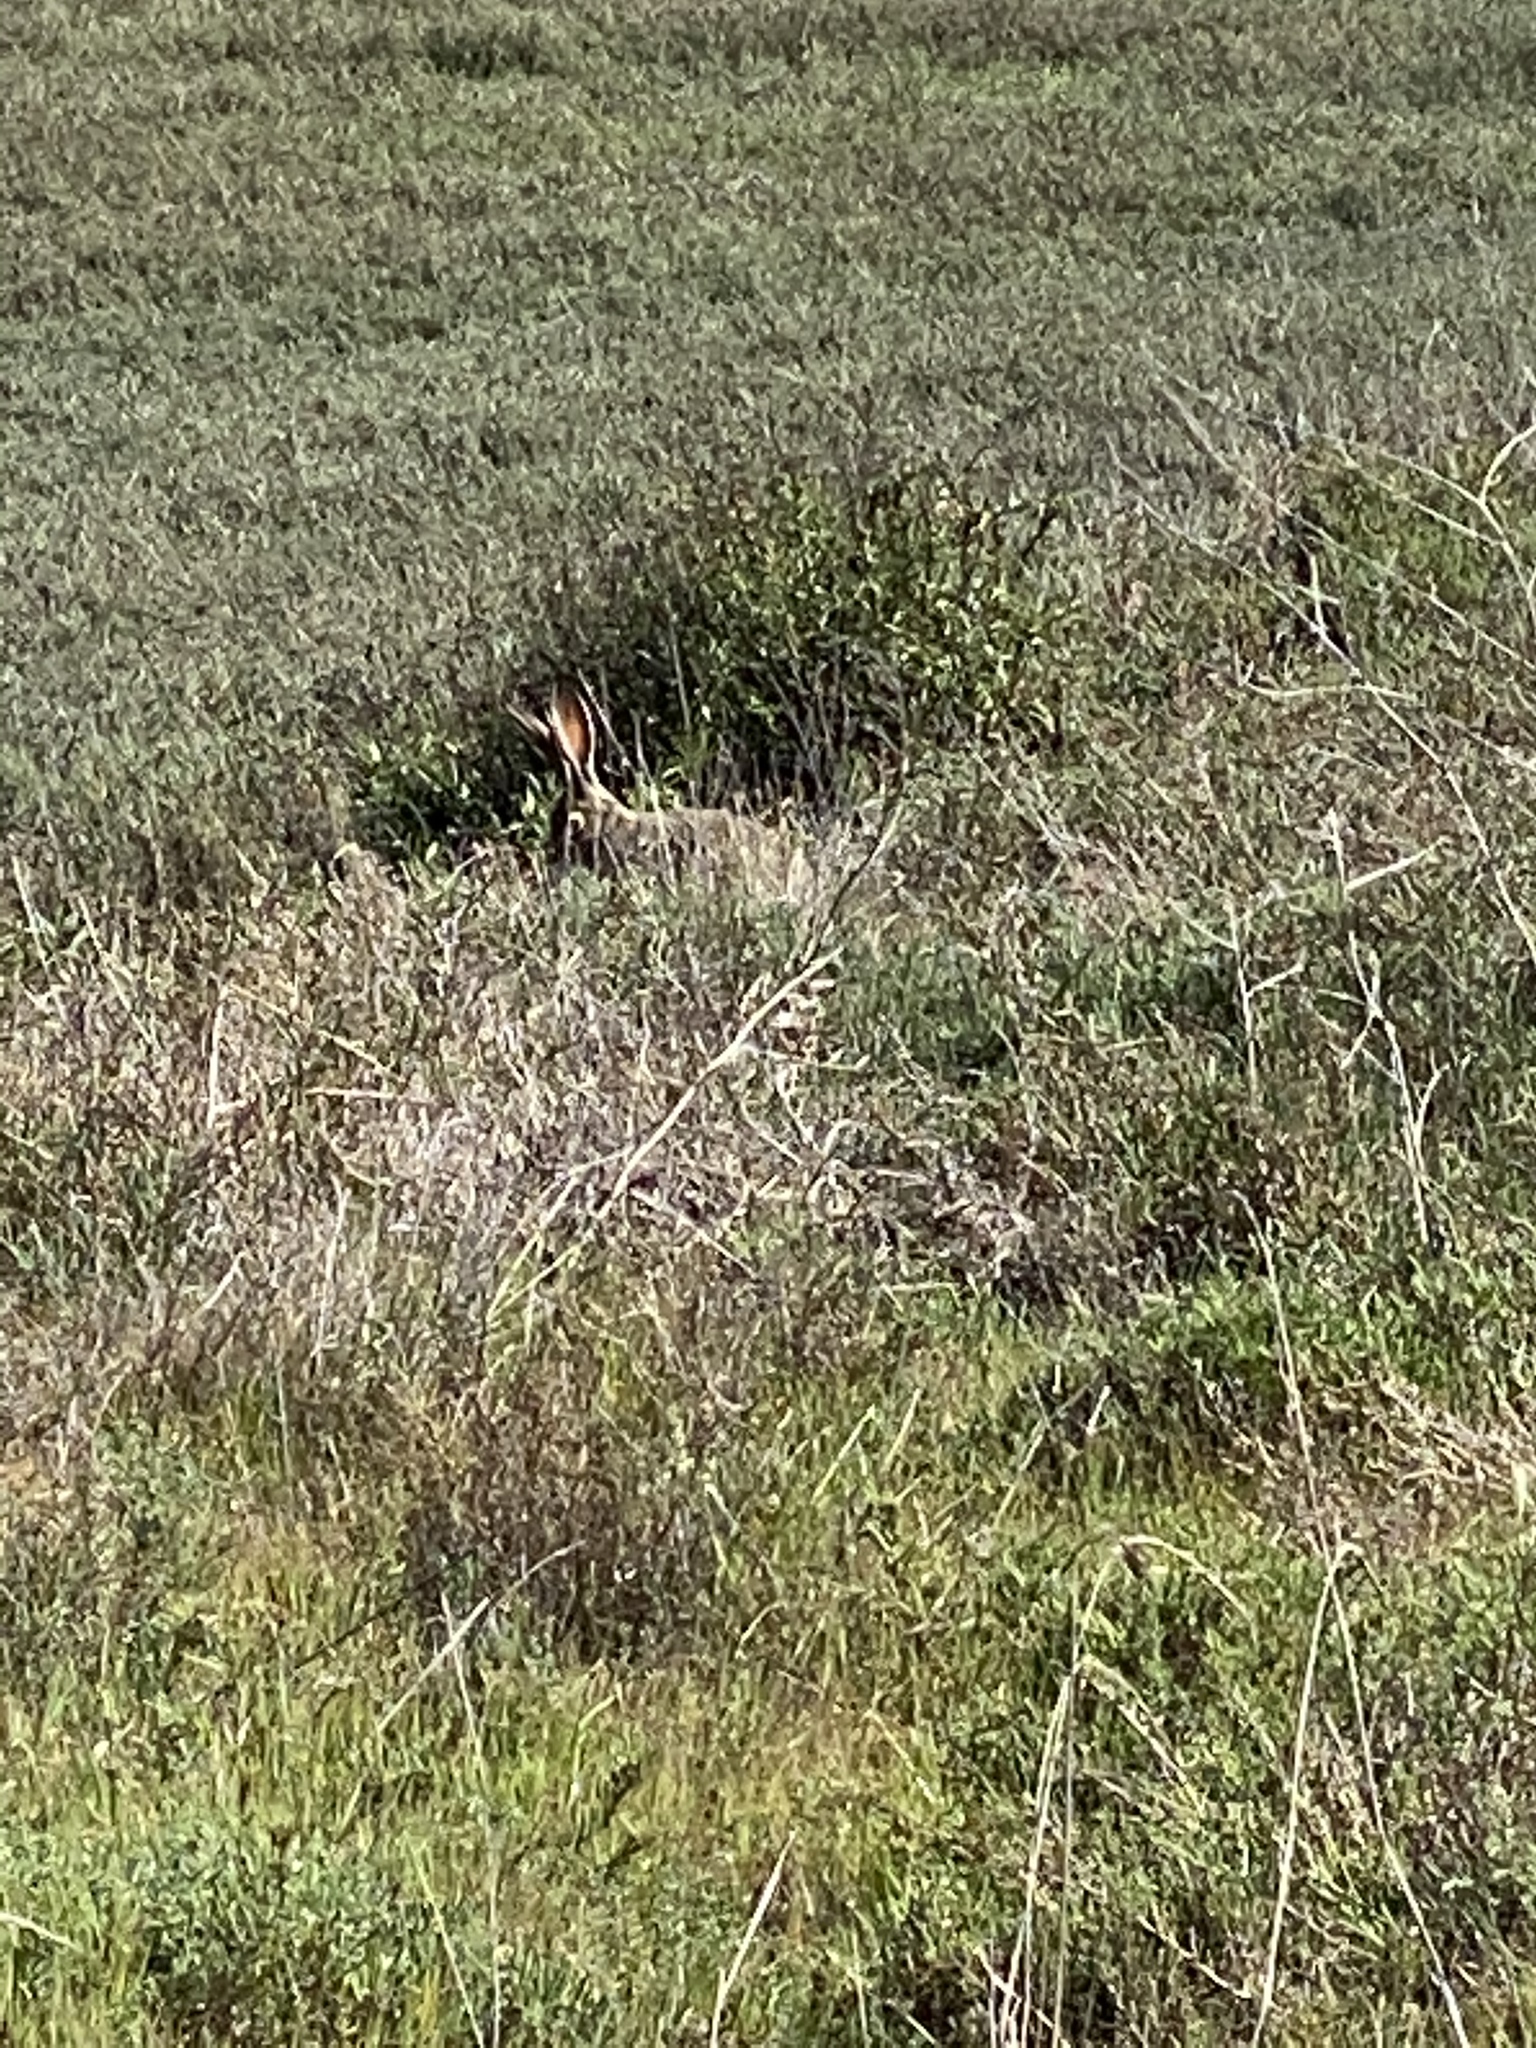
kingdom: Animalia
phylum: Chordata
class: Mammalia
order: Lagomorpha
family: Leporidae
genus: Lepus
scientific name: Lepus californicus
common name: Black-tailed jackrabbit
